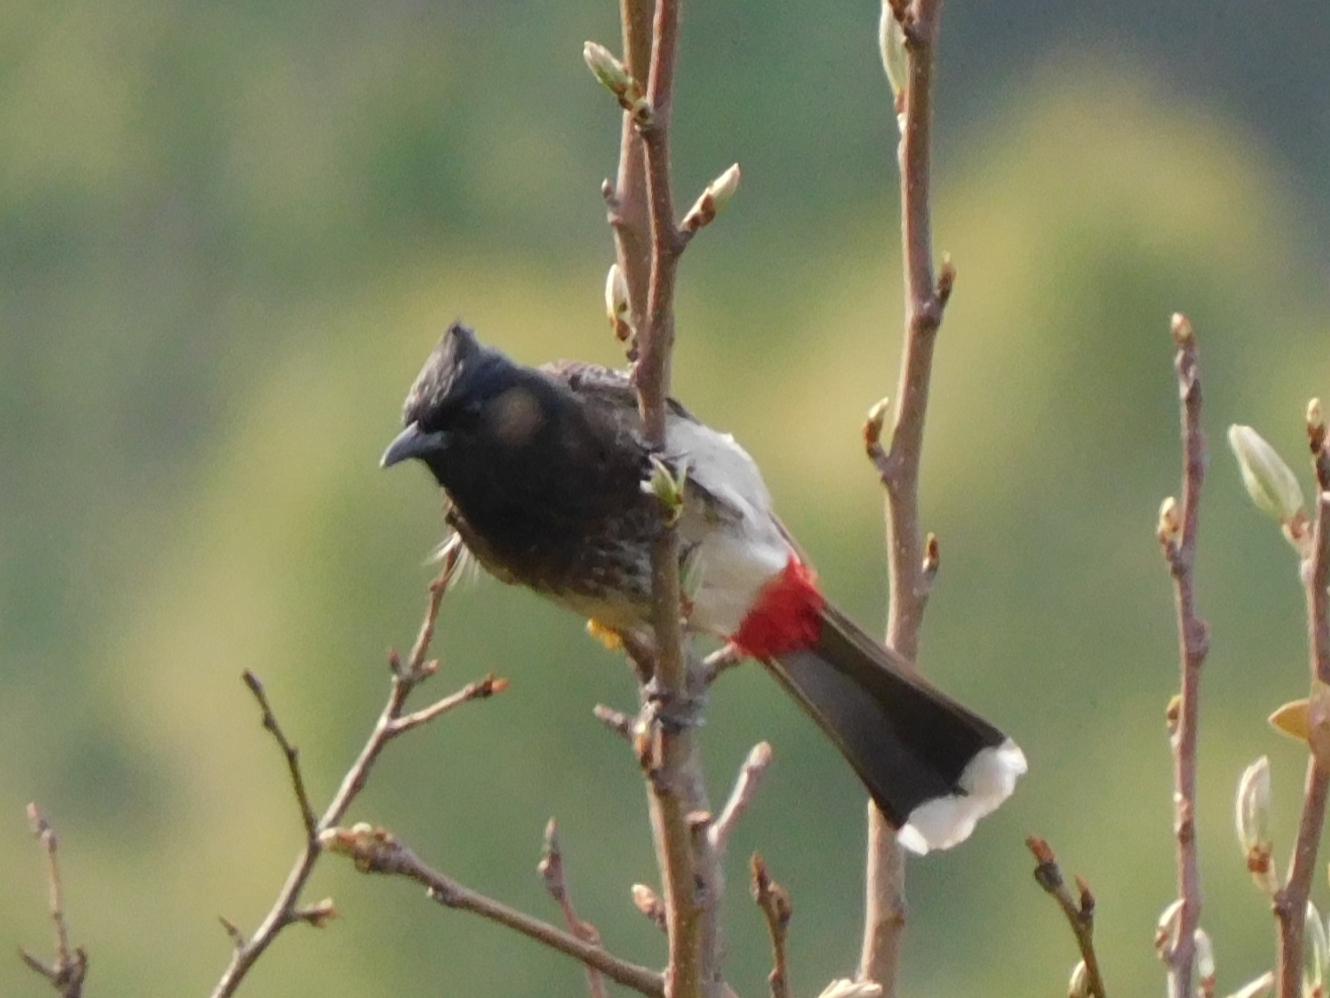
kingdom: Animalia
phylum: Chordata
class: Aves
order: Passeriformes
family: Pycnonotidae
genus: Pycnonotus
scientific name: Pycnonotus cafer
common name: Red-vented bulbul
